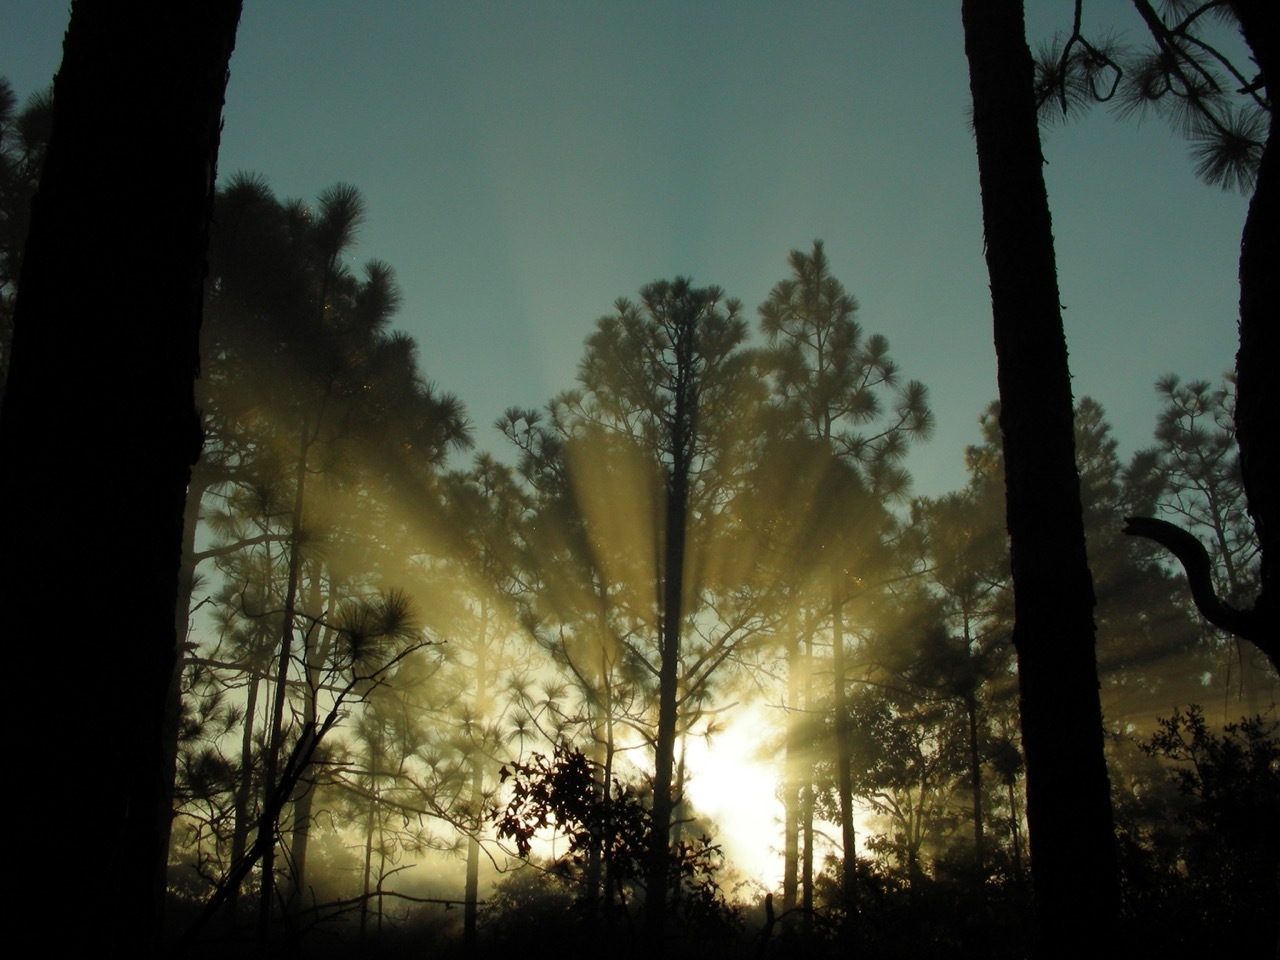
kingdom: Plantae
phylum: Tracheophyta
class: Pinopsida
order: Pinales
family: Pinaceae
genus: Pinus
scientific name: Pinus palustris
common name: Longleaf pine
